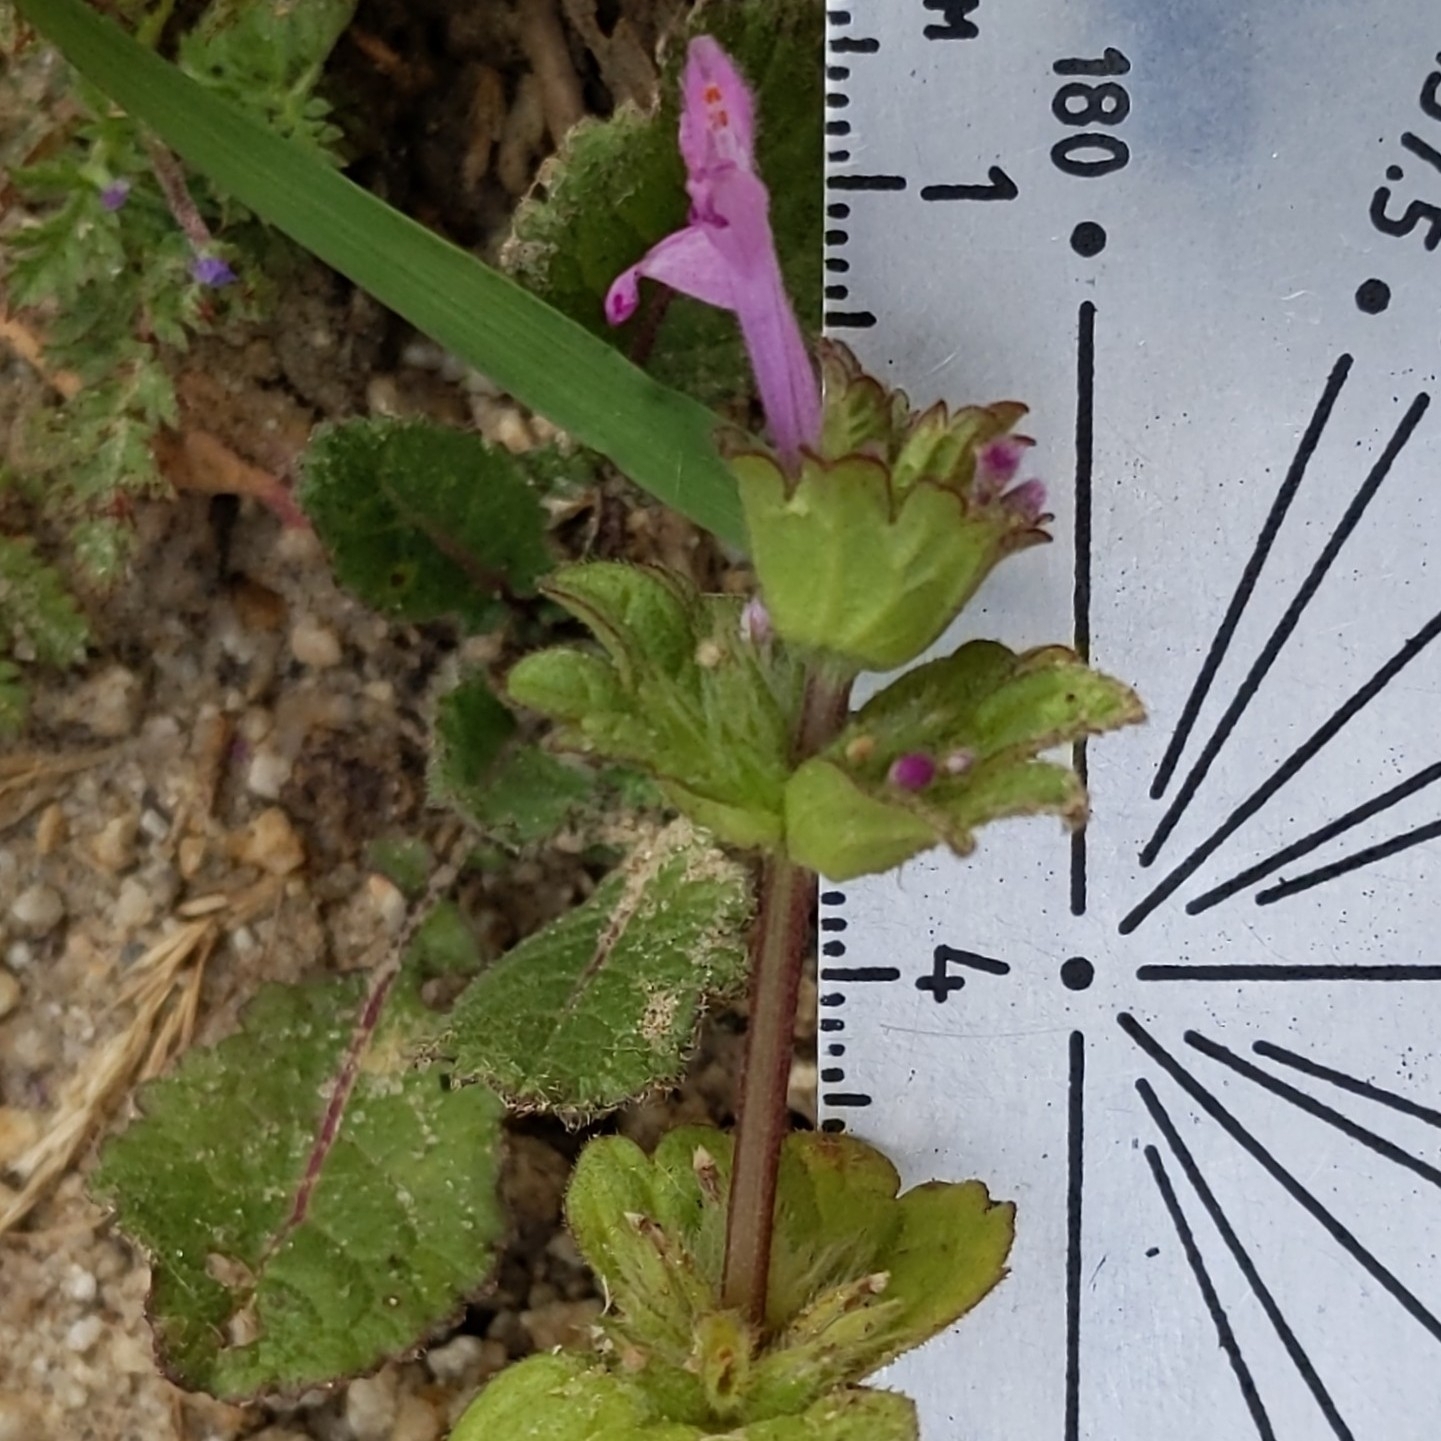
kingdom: Plantae
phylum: Tracheophyta
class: Magnoliopsida
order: Lamiales
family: Lamiaceae
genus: Lamium
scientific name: Lamium amplexicaule
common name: Henbit dead-nettle
